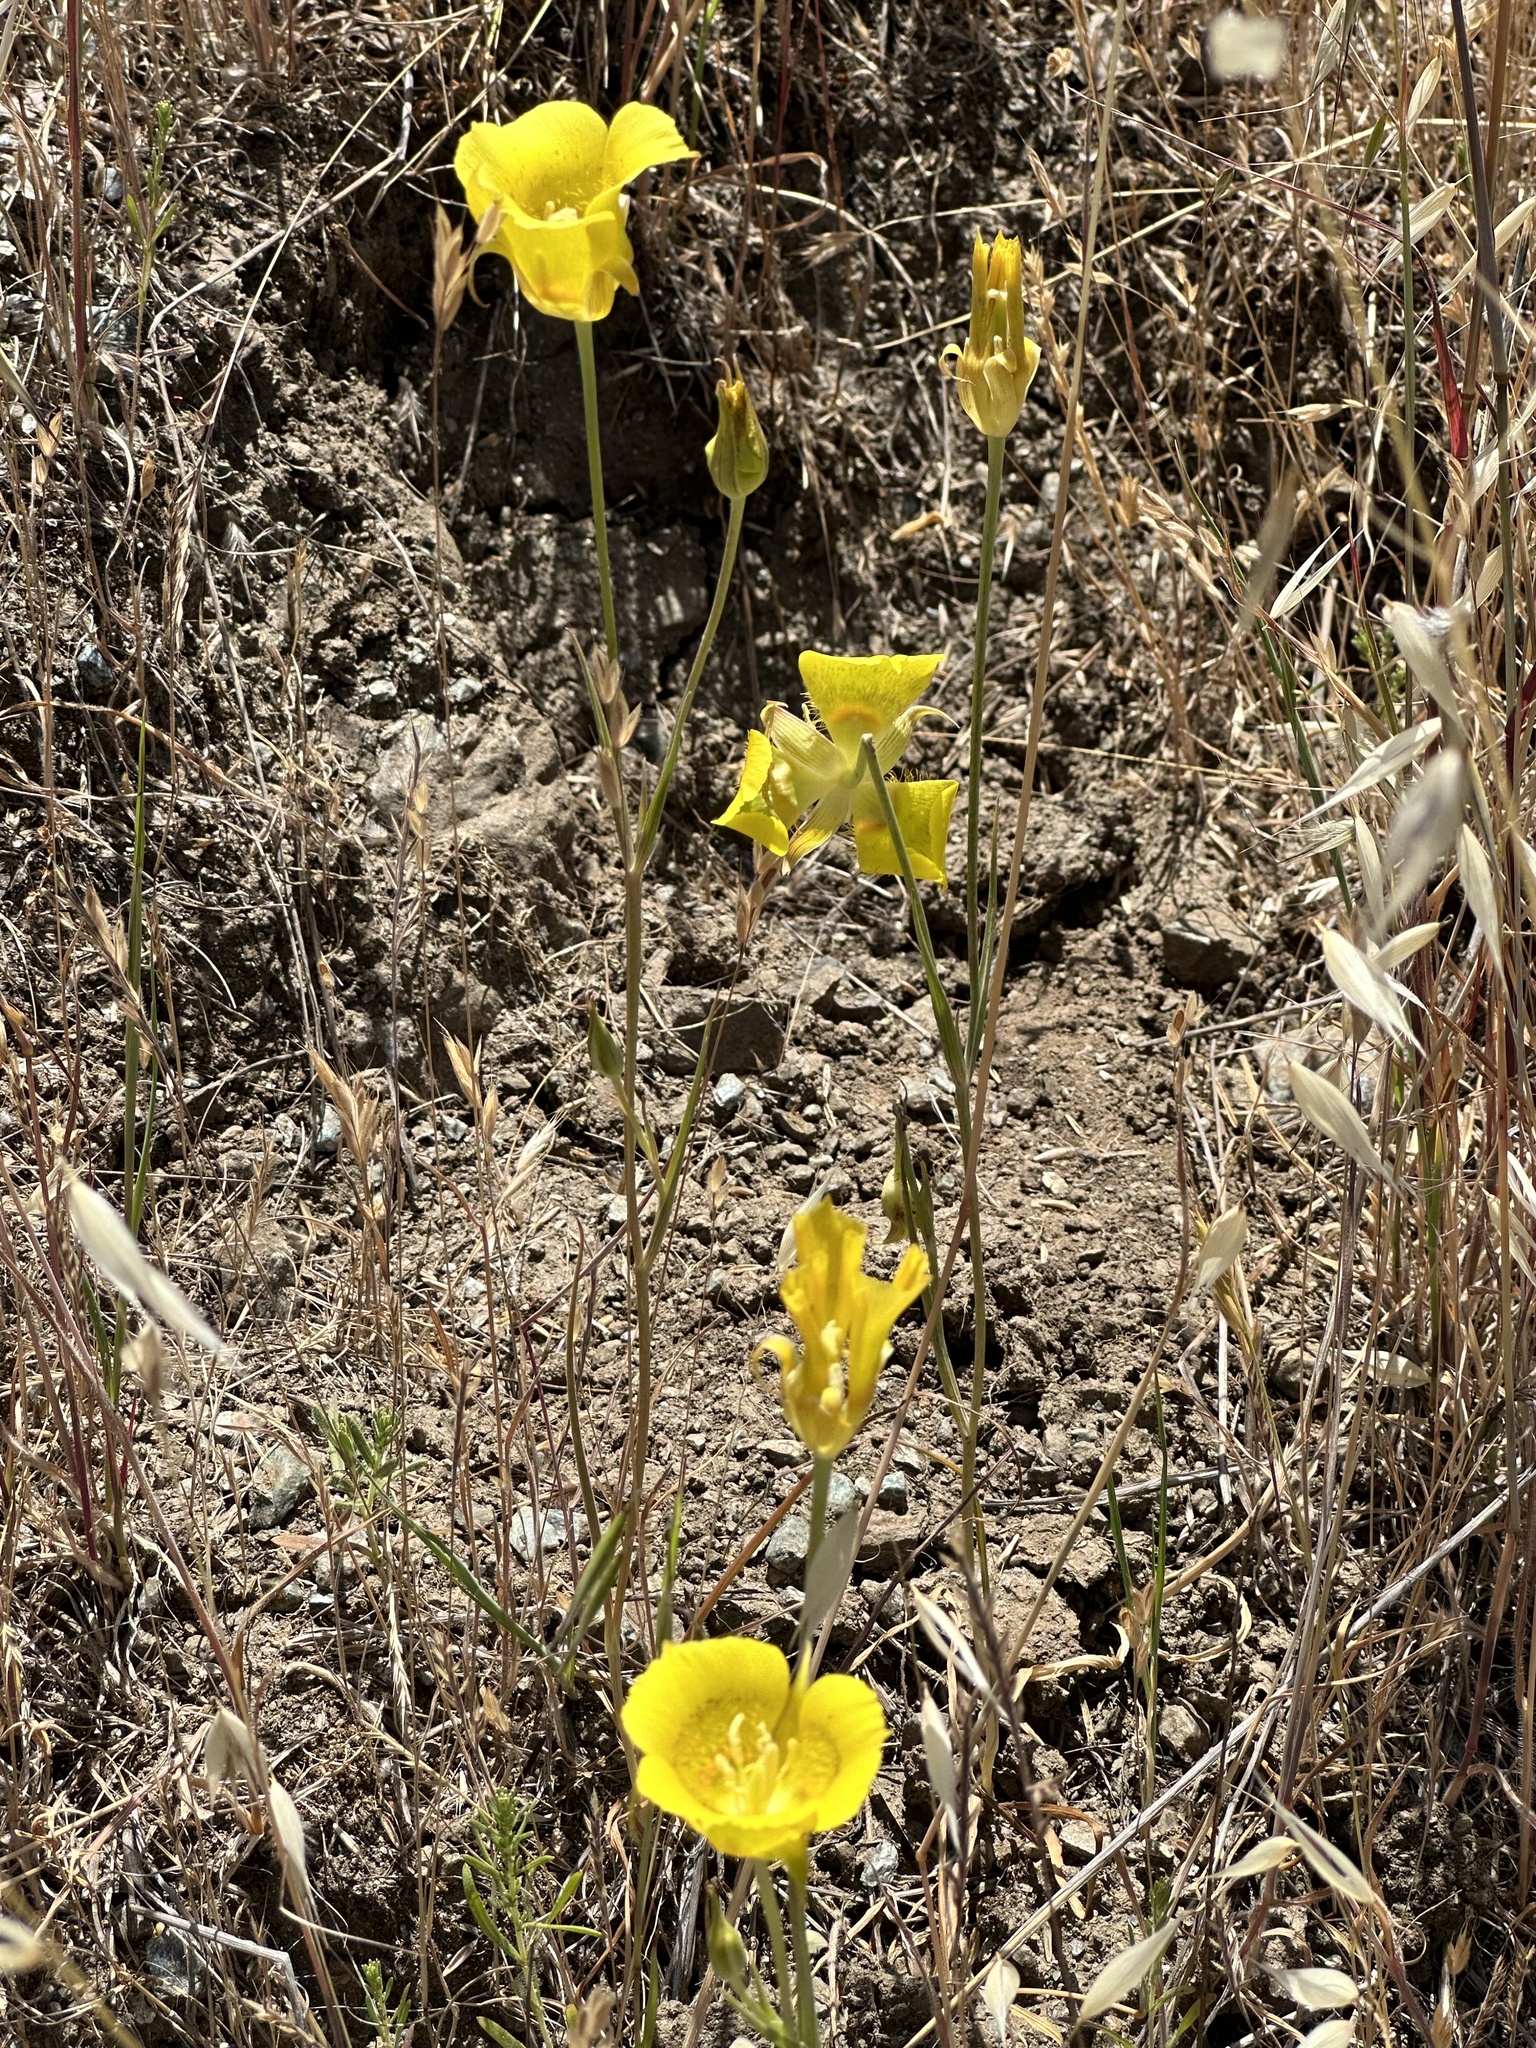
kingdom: Plantae
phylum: Tracheophyta
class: Liliopsida
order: Liliales
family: Liliaceae
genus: Calochortus
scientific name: Calochortus luteus
